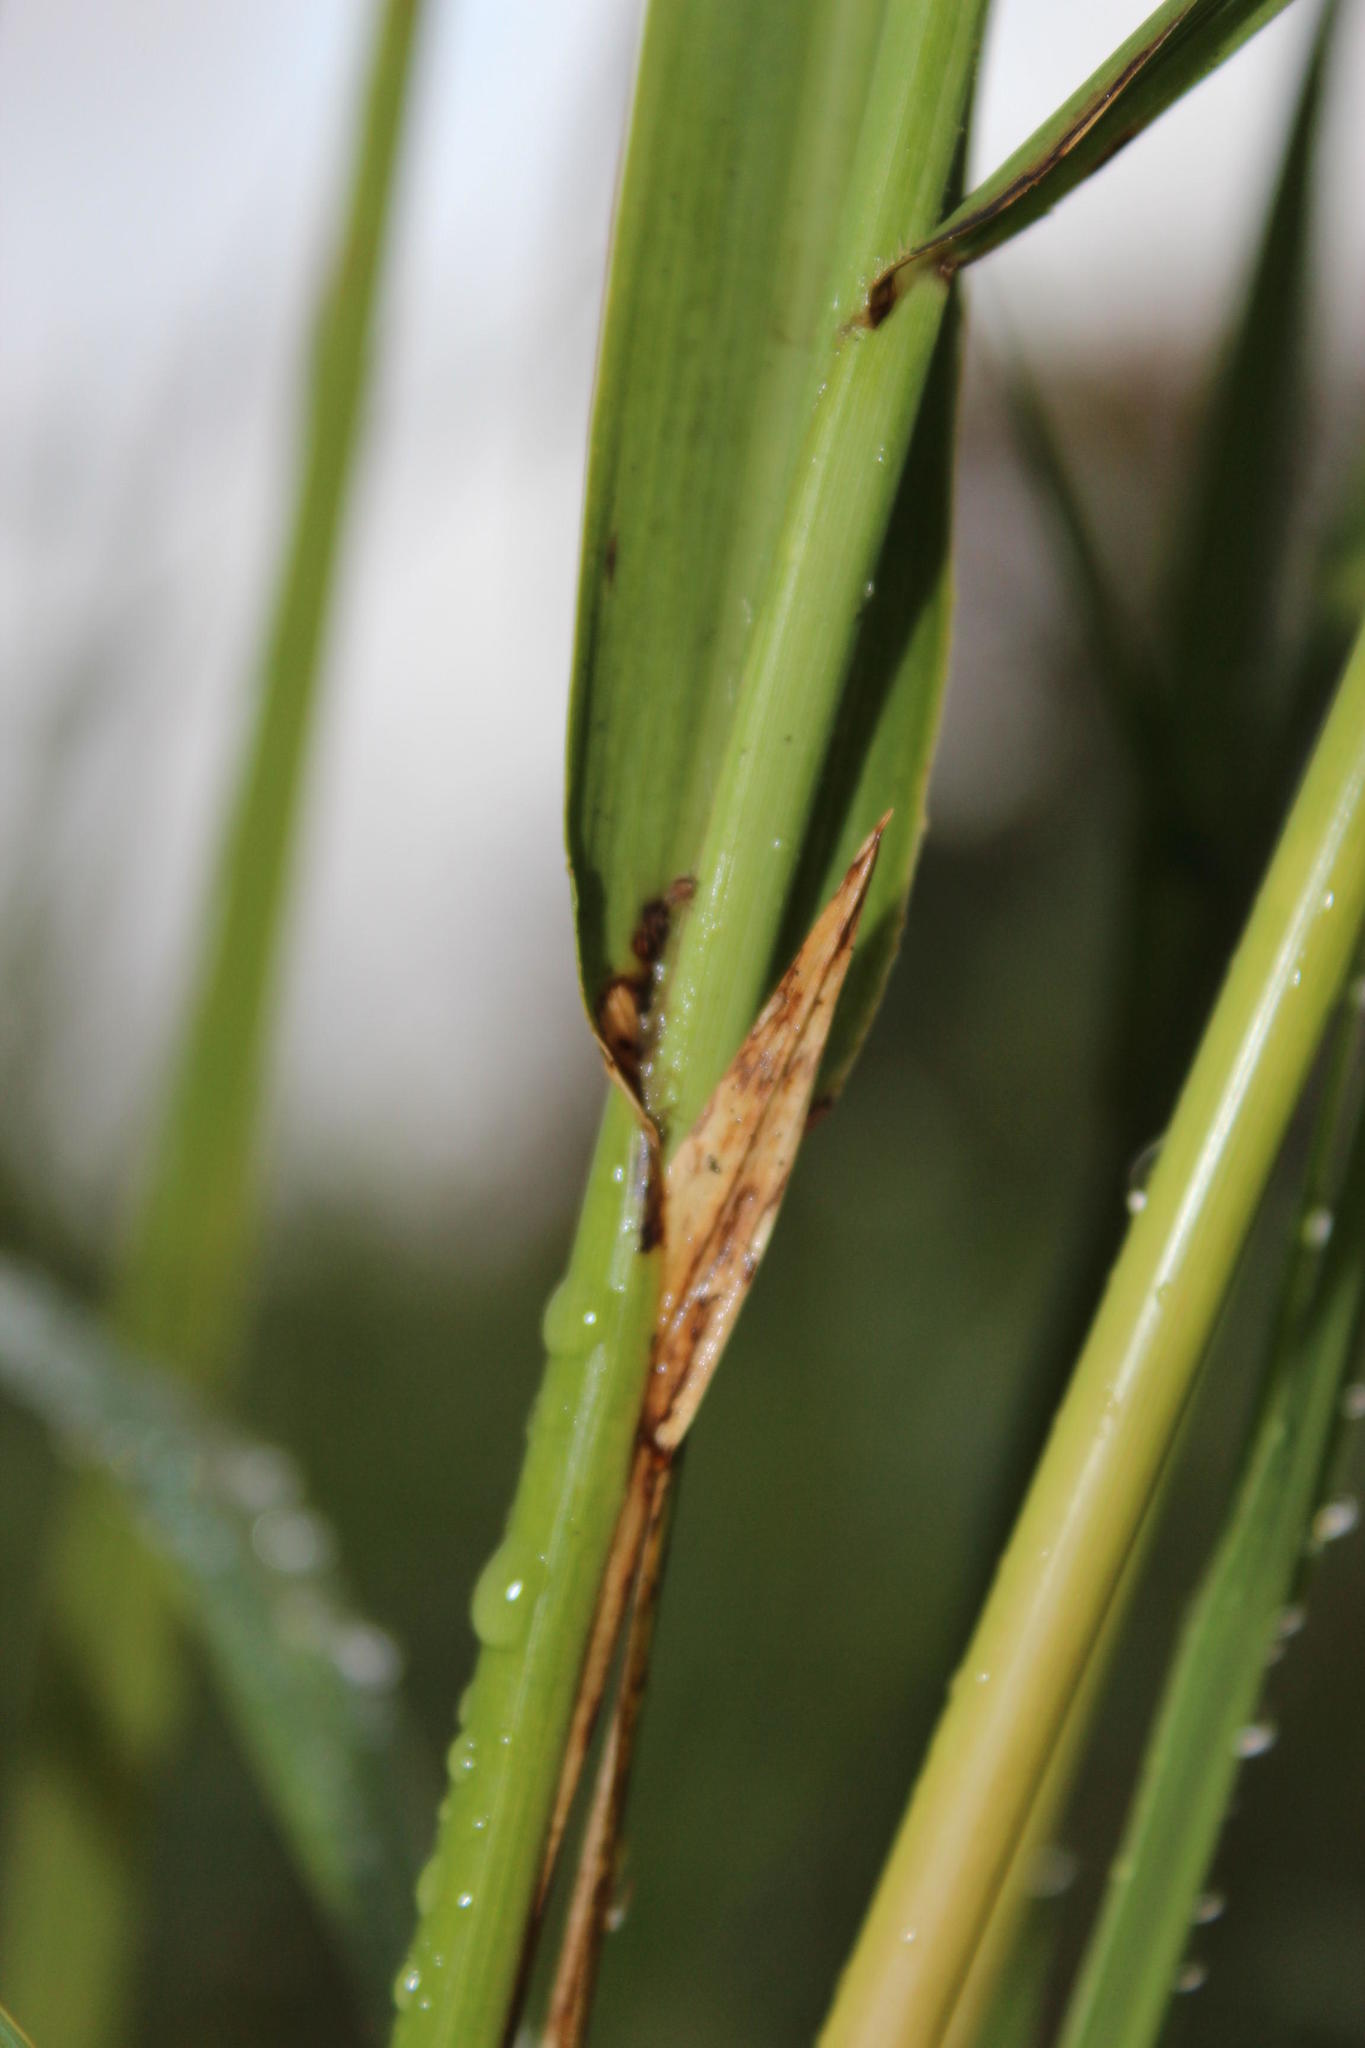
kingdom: Plantae
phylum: Tracheophyta
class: Liliopsida
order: Poales
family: Poaceae
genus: Echinochloa
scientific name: Echinochloa pyramidalis
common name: Antelope grass
